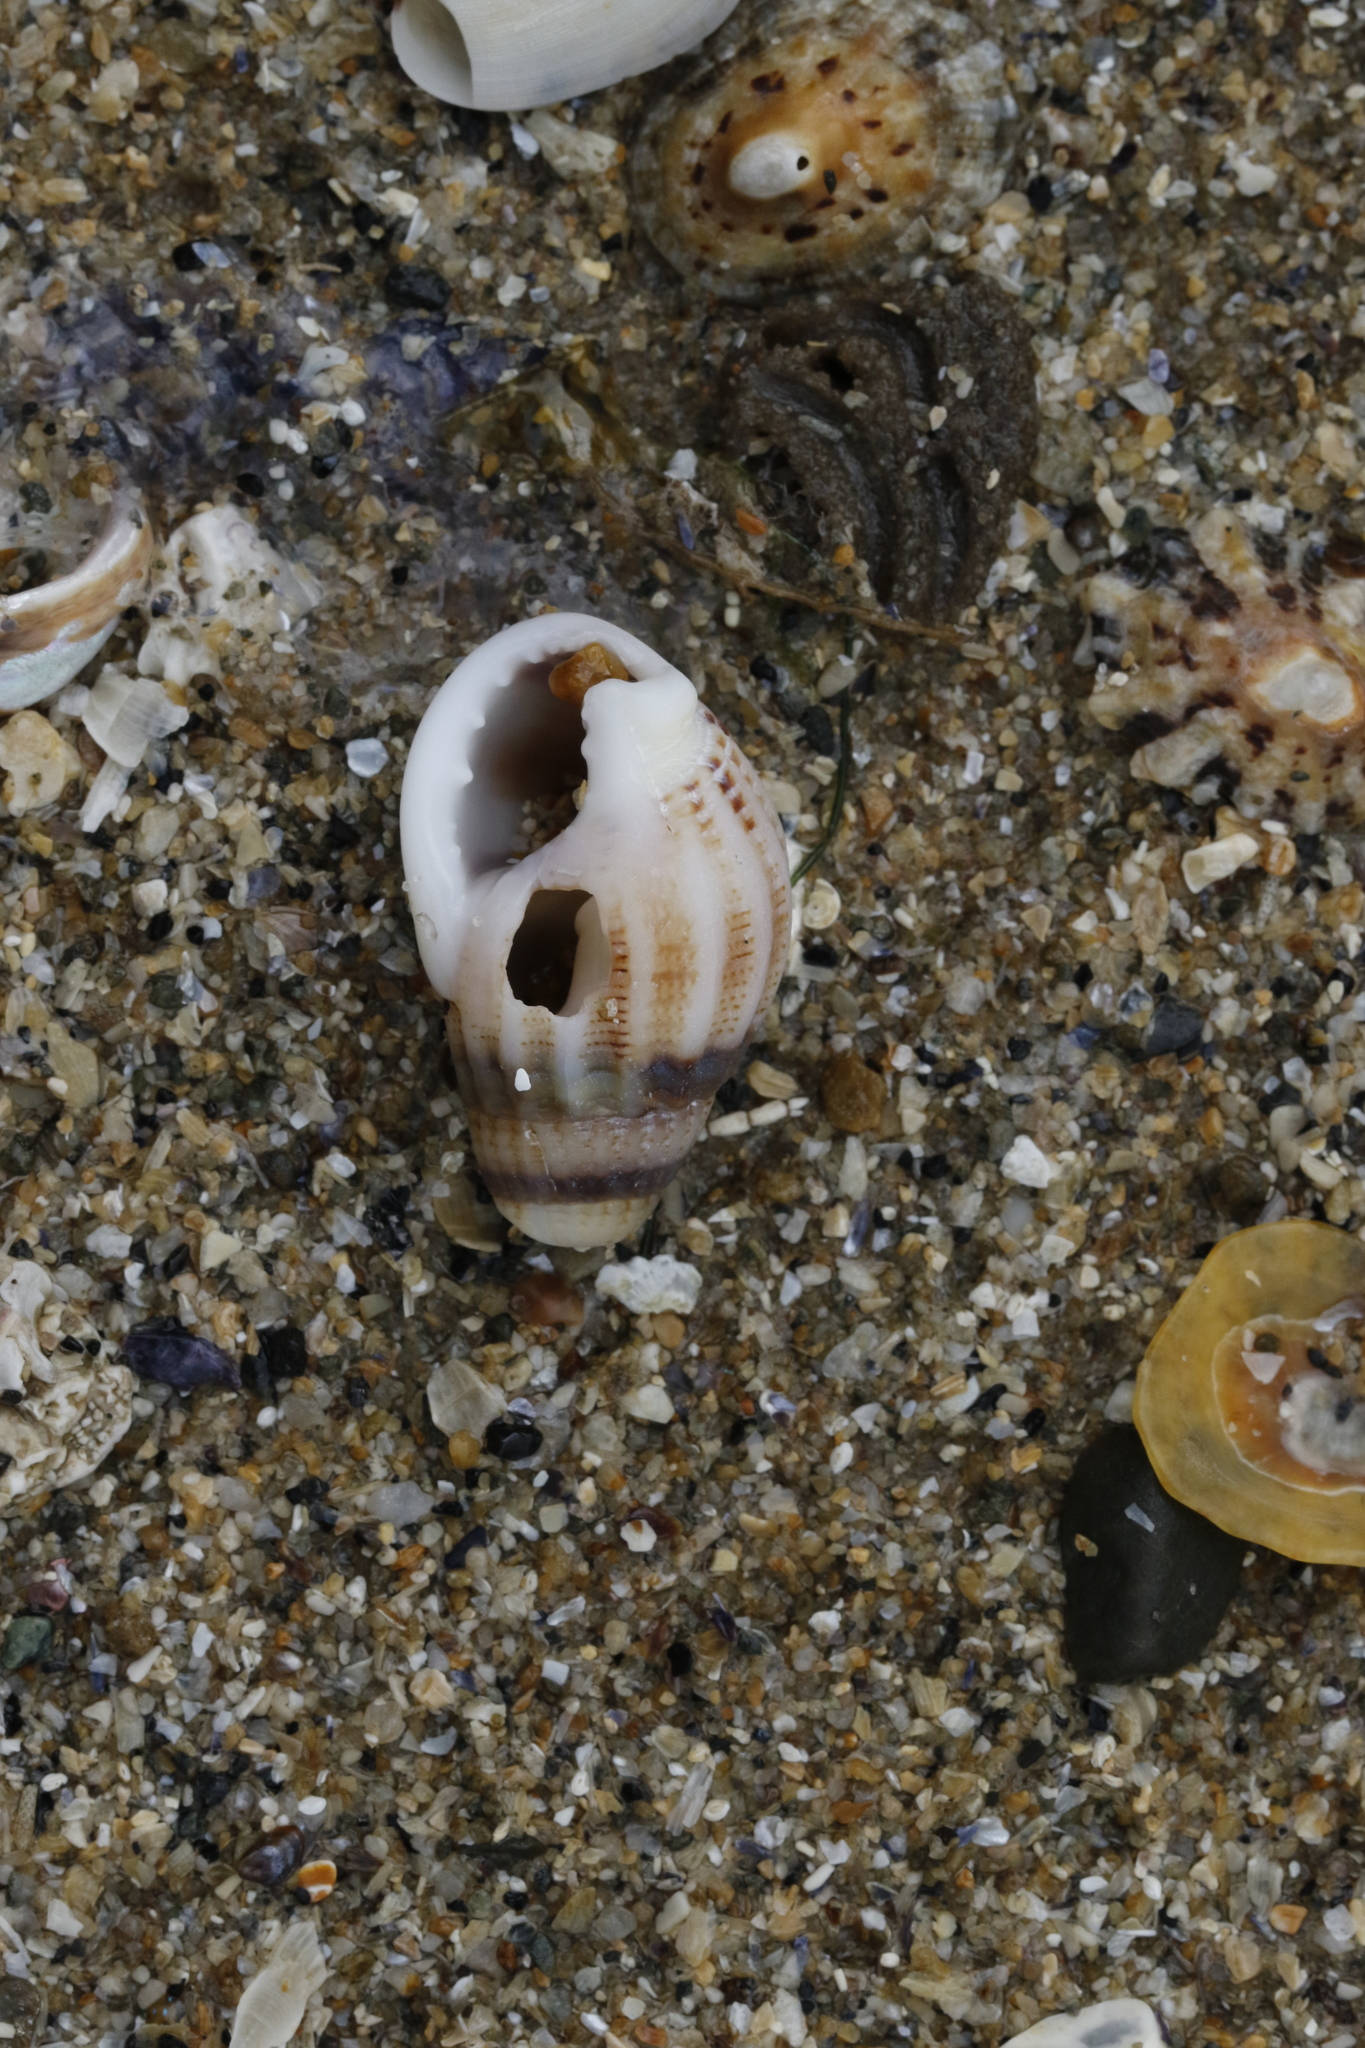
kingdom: Animalia
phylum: Mollusca
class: Gastropoda
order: Neogastropoda
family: Nassariidae
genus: Tritia
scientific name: Tritia reticulata
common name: Netted dog whelk
